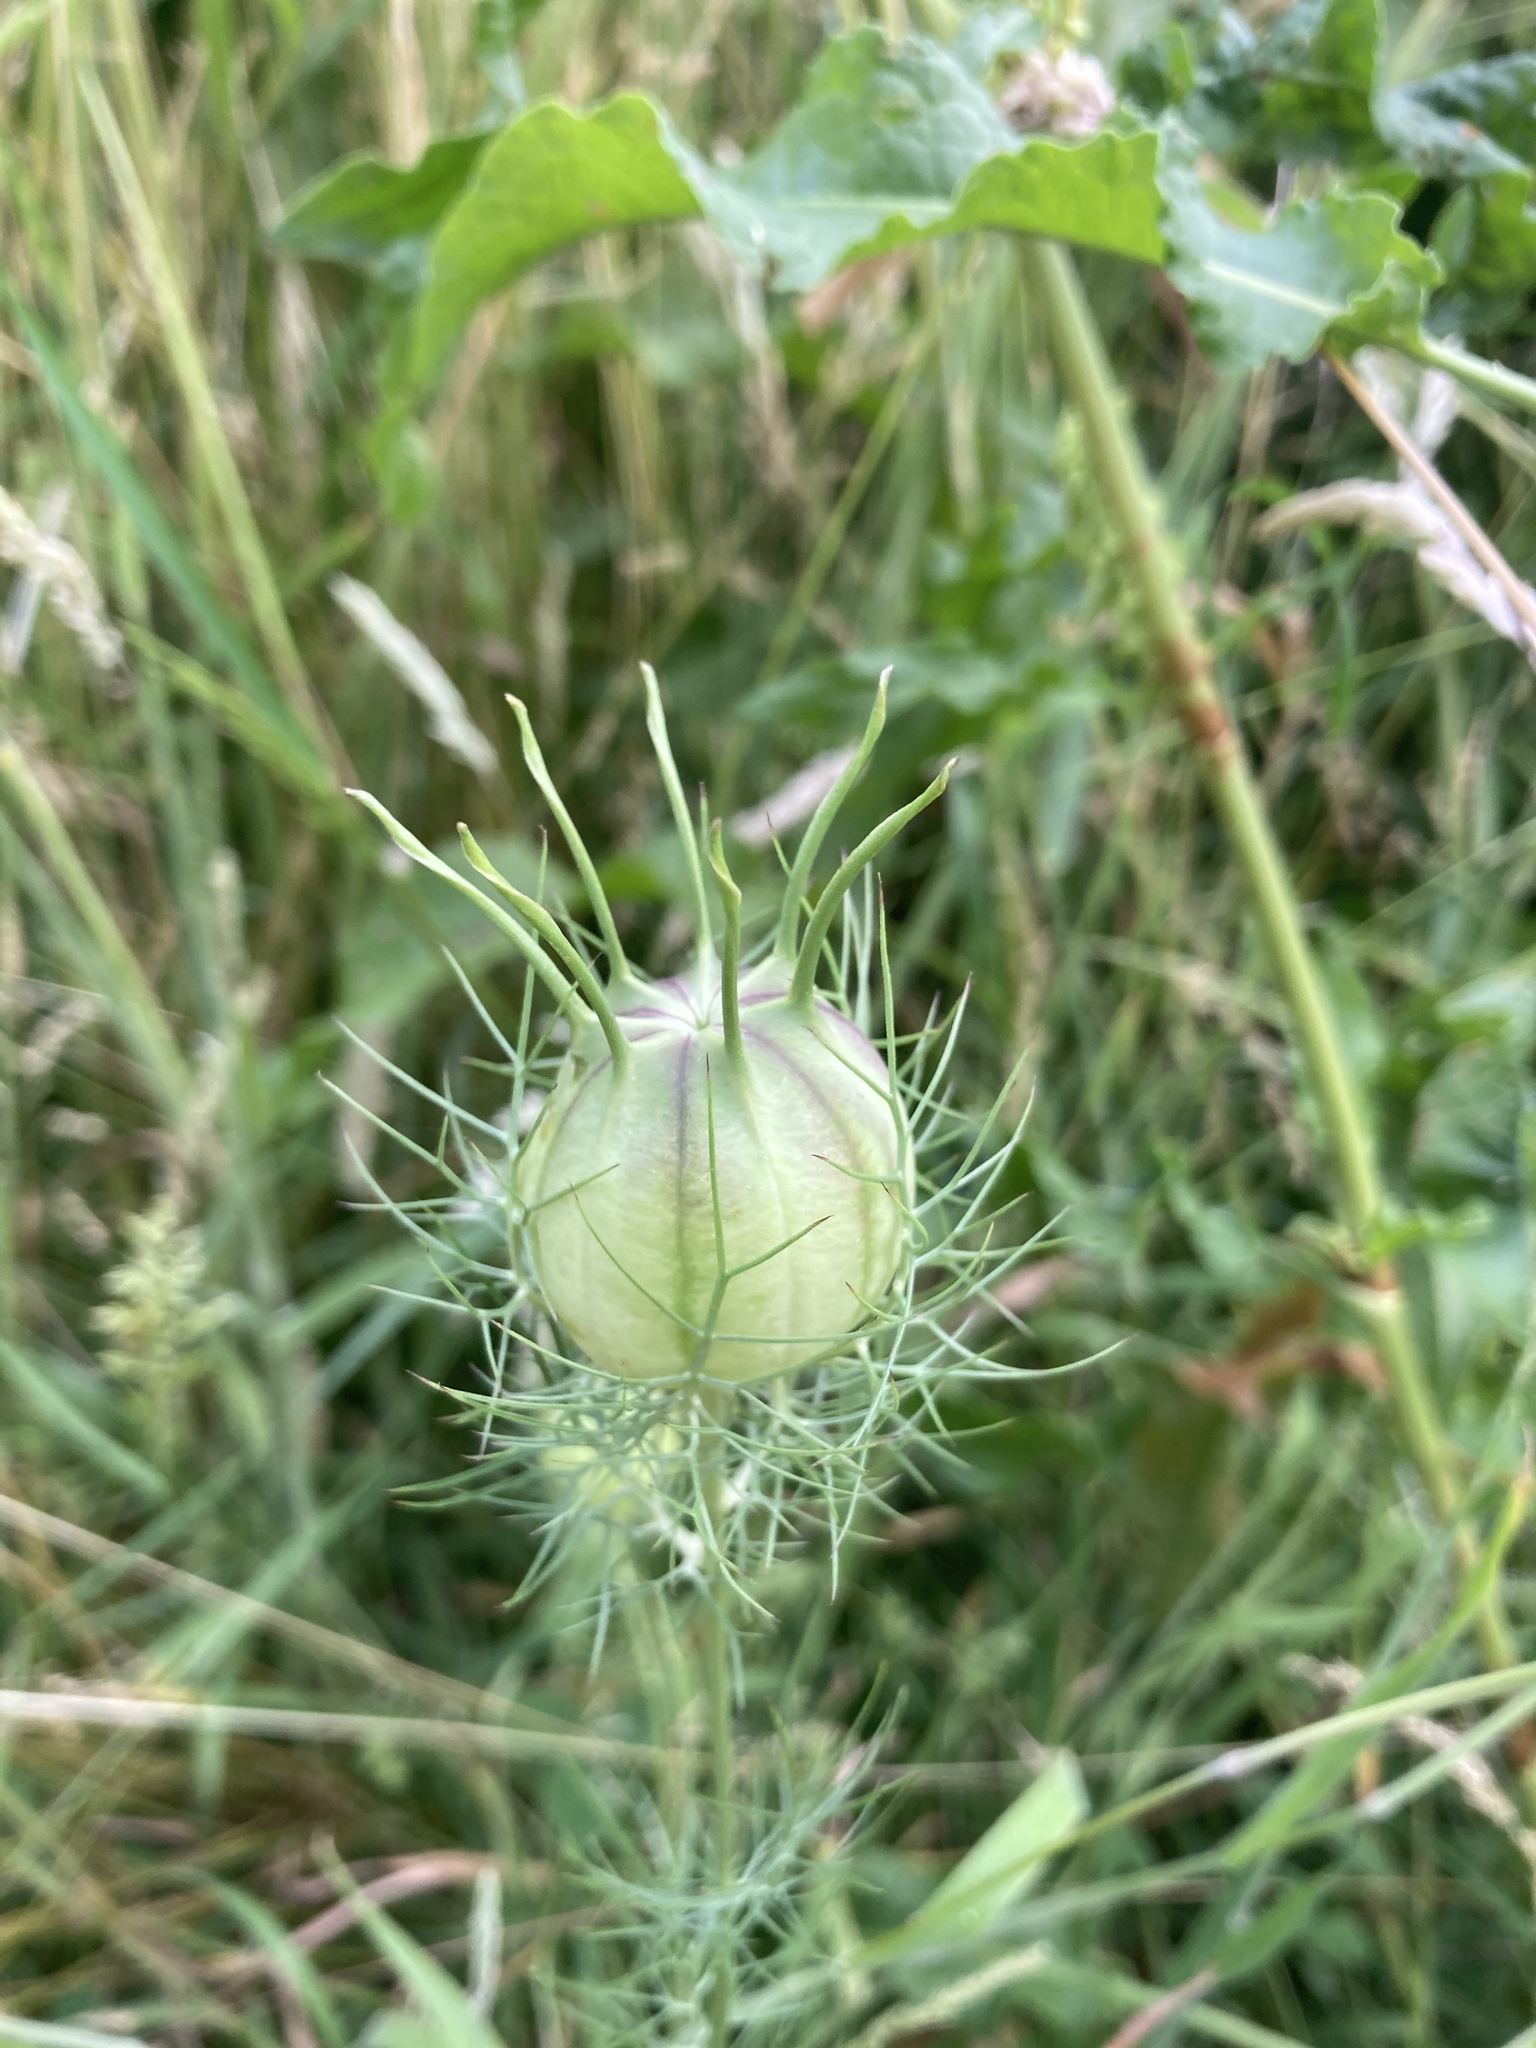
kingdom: Plantae
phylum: Tracheophyta
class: Magnoliopsida
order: Ranunculales
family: Ranunculaceae
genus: Nigella
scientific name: Nigella damascena
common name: Love-in-a-mist
